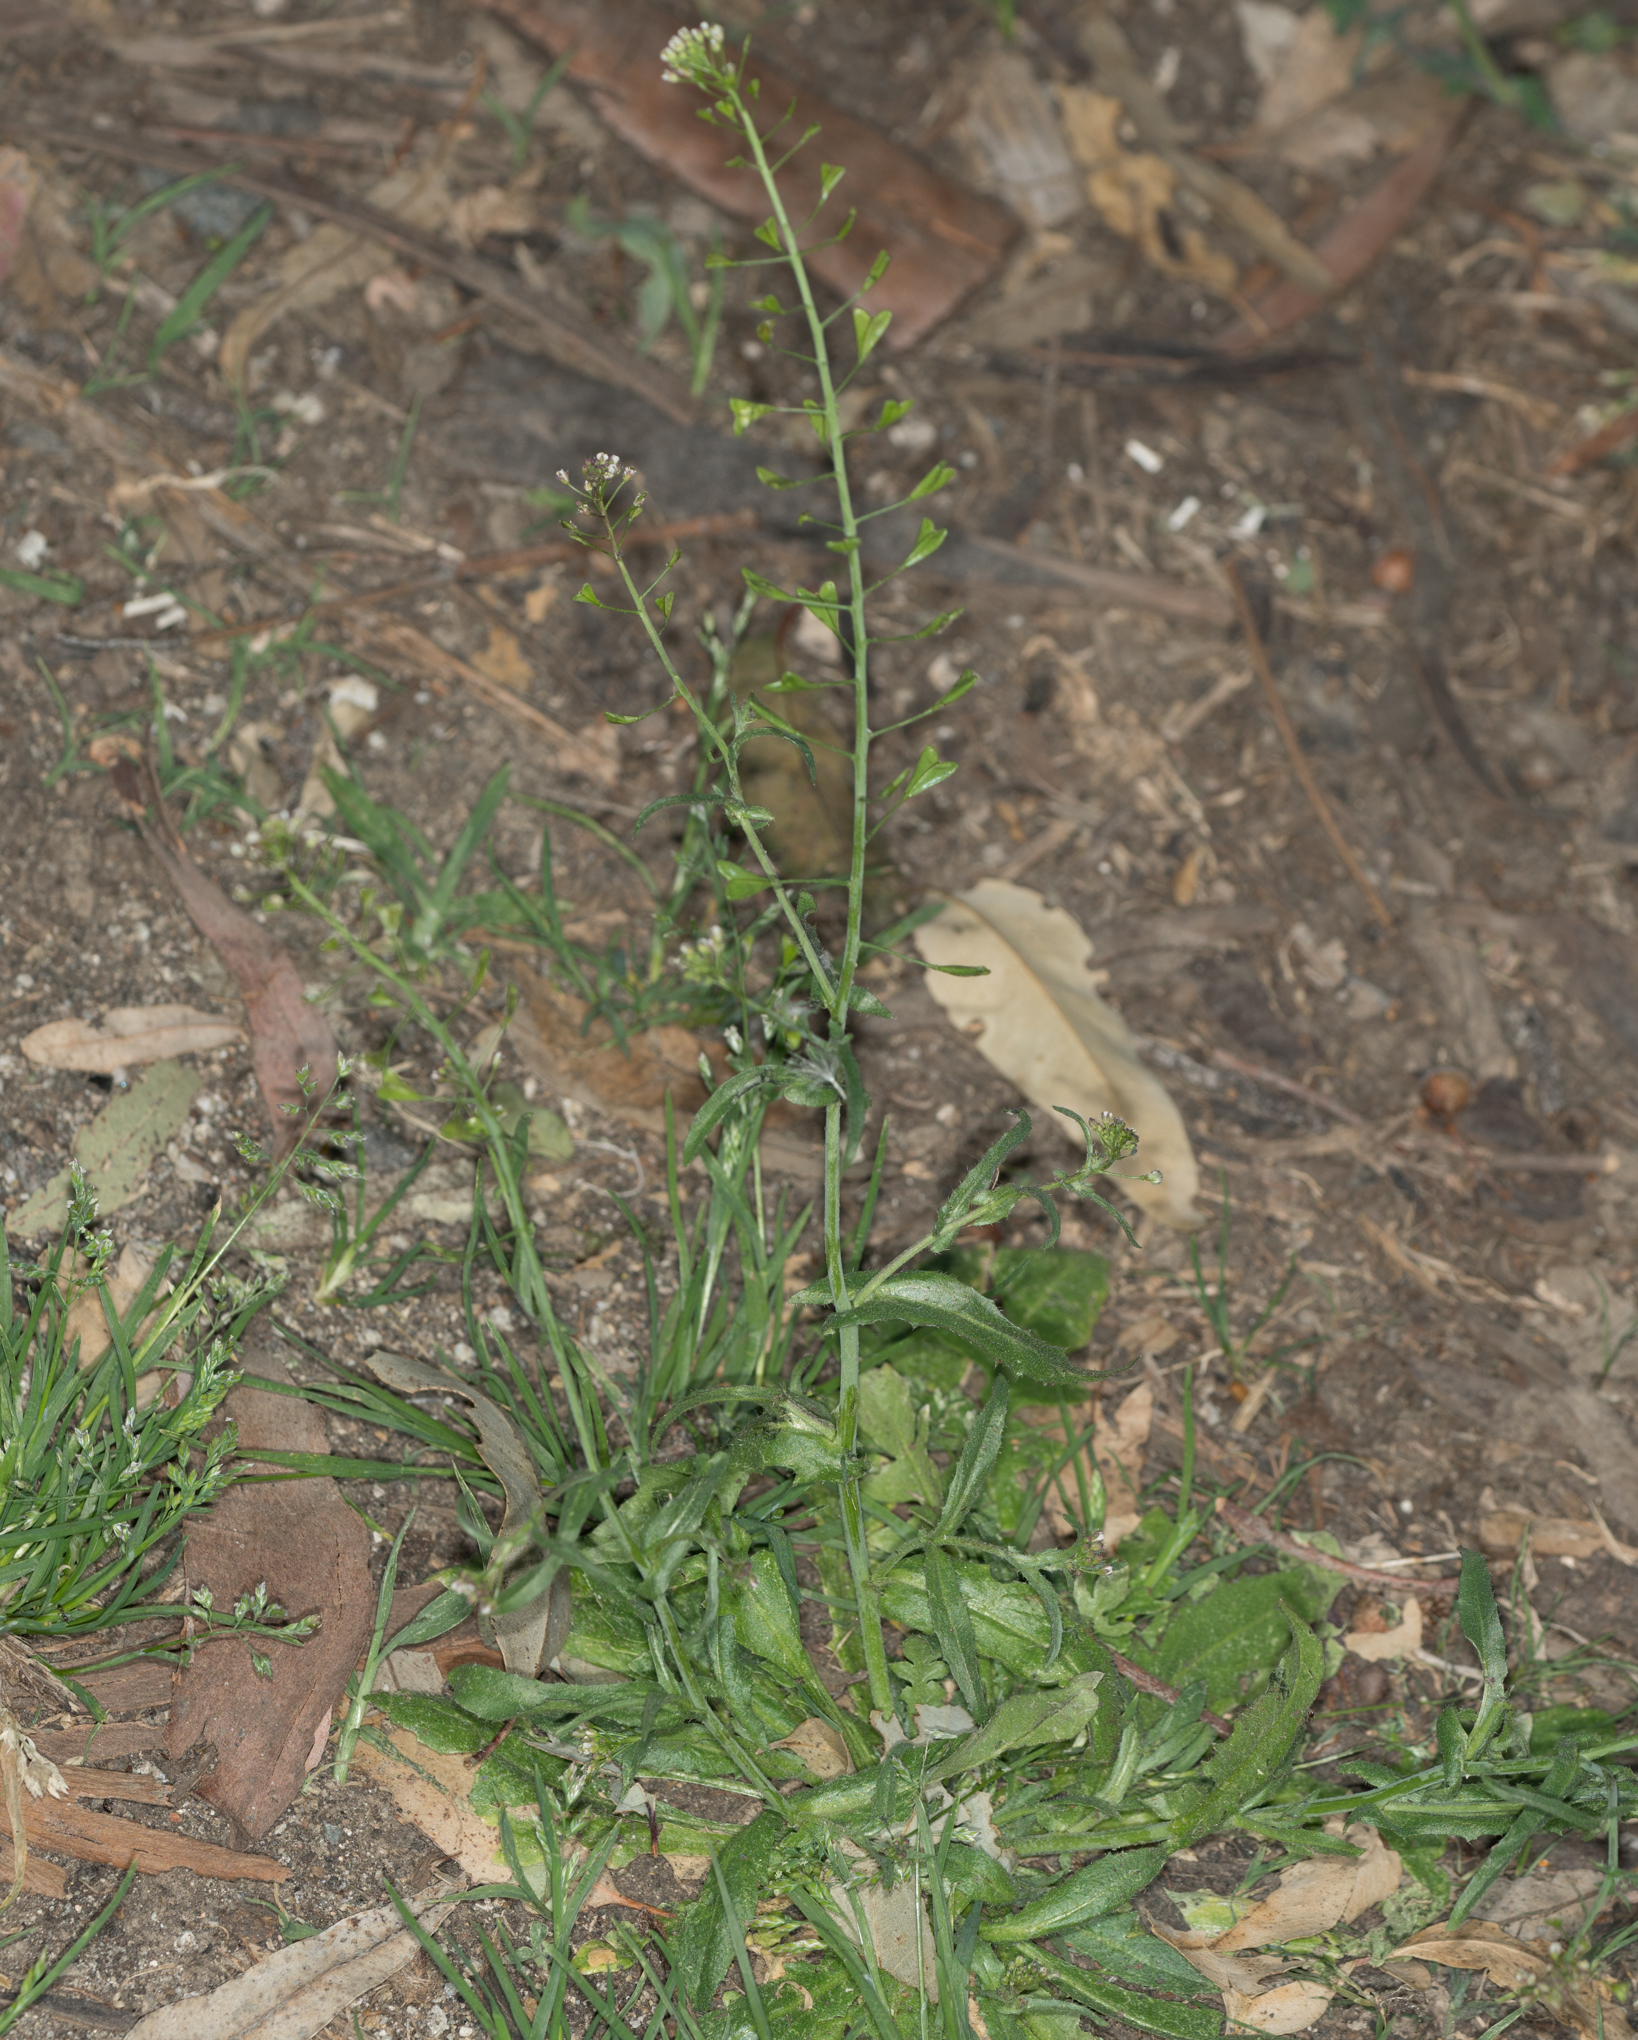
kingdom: Plantae
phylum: Tracheophyta
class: Magnoliopsida
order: Brassicales
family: Brassicaceae
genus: Capsella
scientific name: Capsella bursa-pastoris
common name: Shepherd's purse
